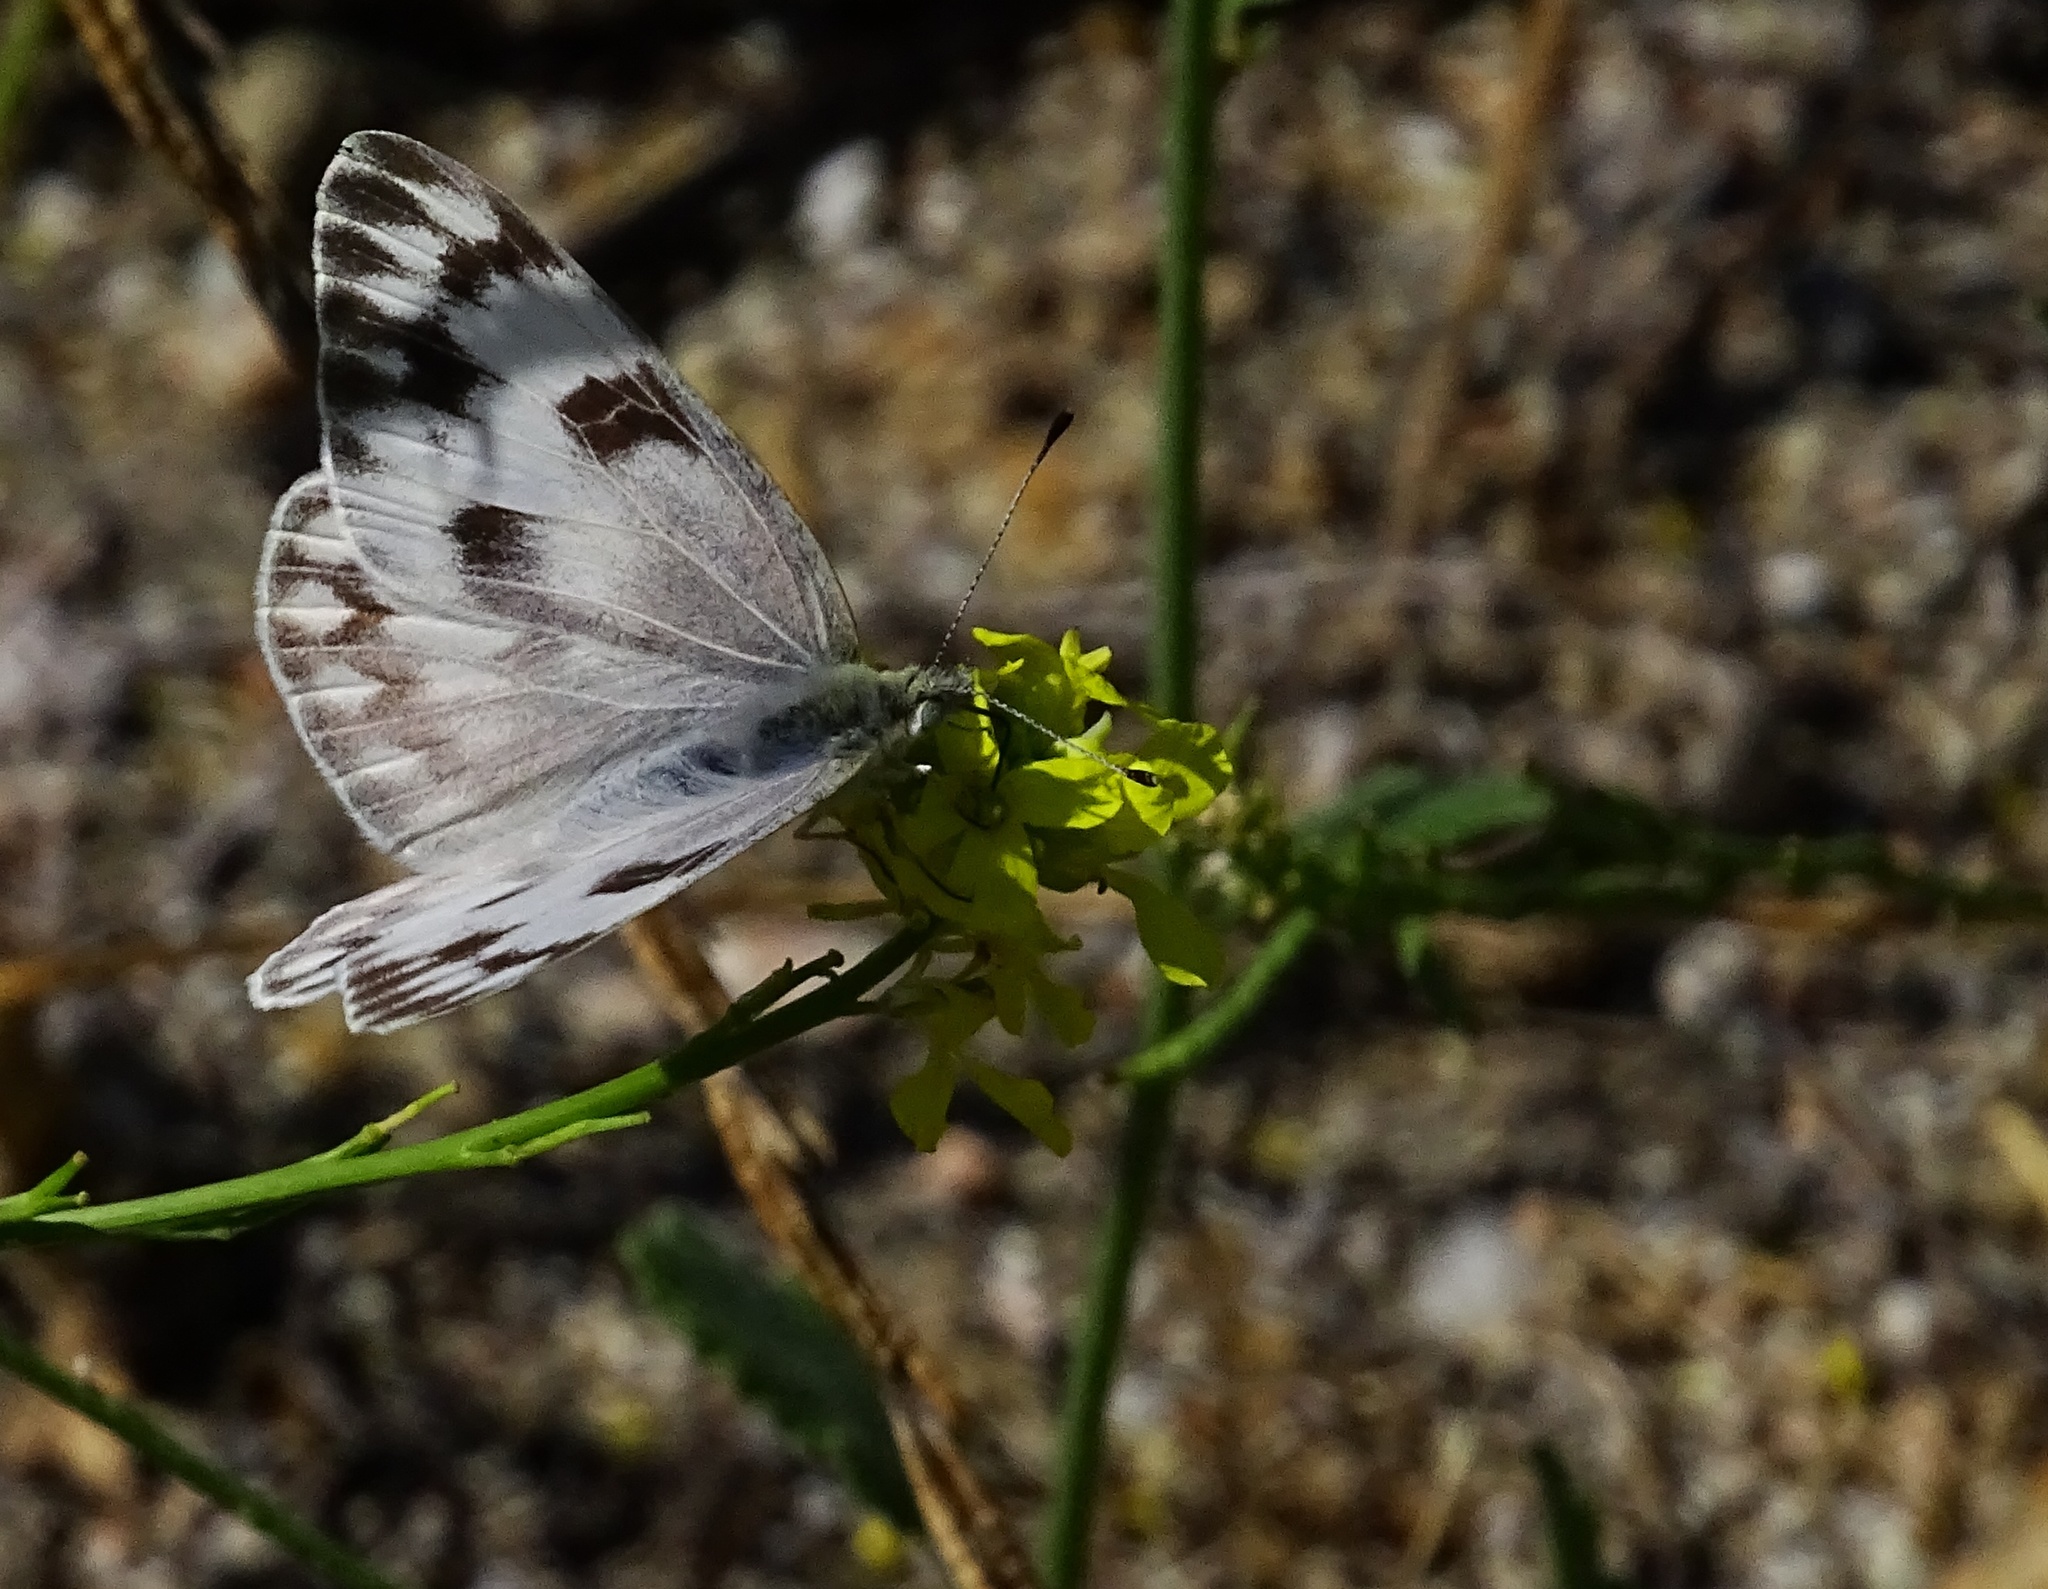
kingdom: Animalia
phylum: Arthropoda
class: Insecta
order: Lepidoptera
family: Pieridae
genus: Pontia
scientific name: Pontia protodice
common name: Checkered white
